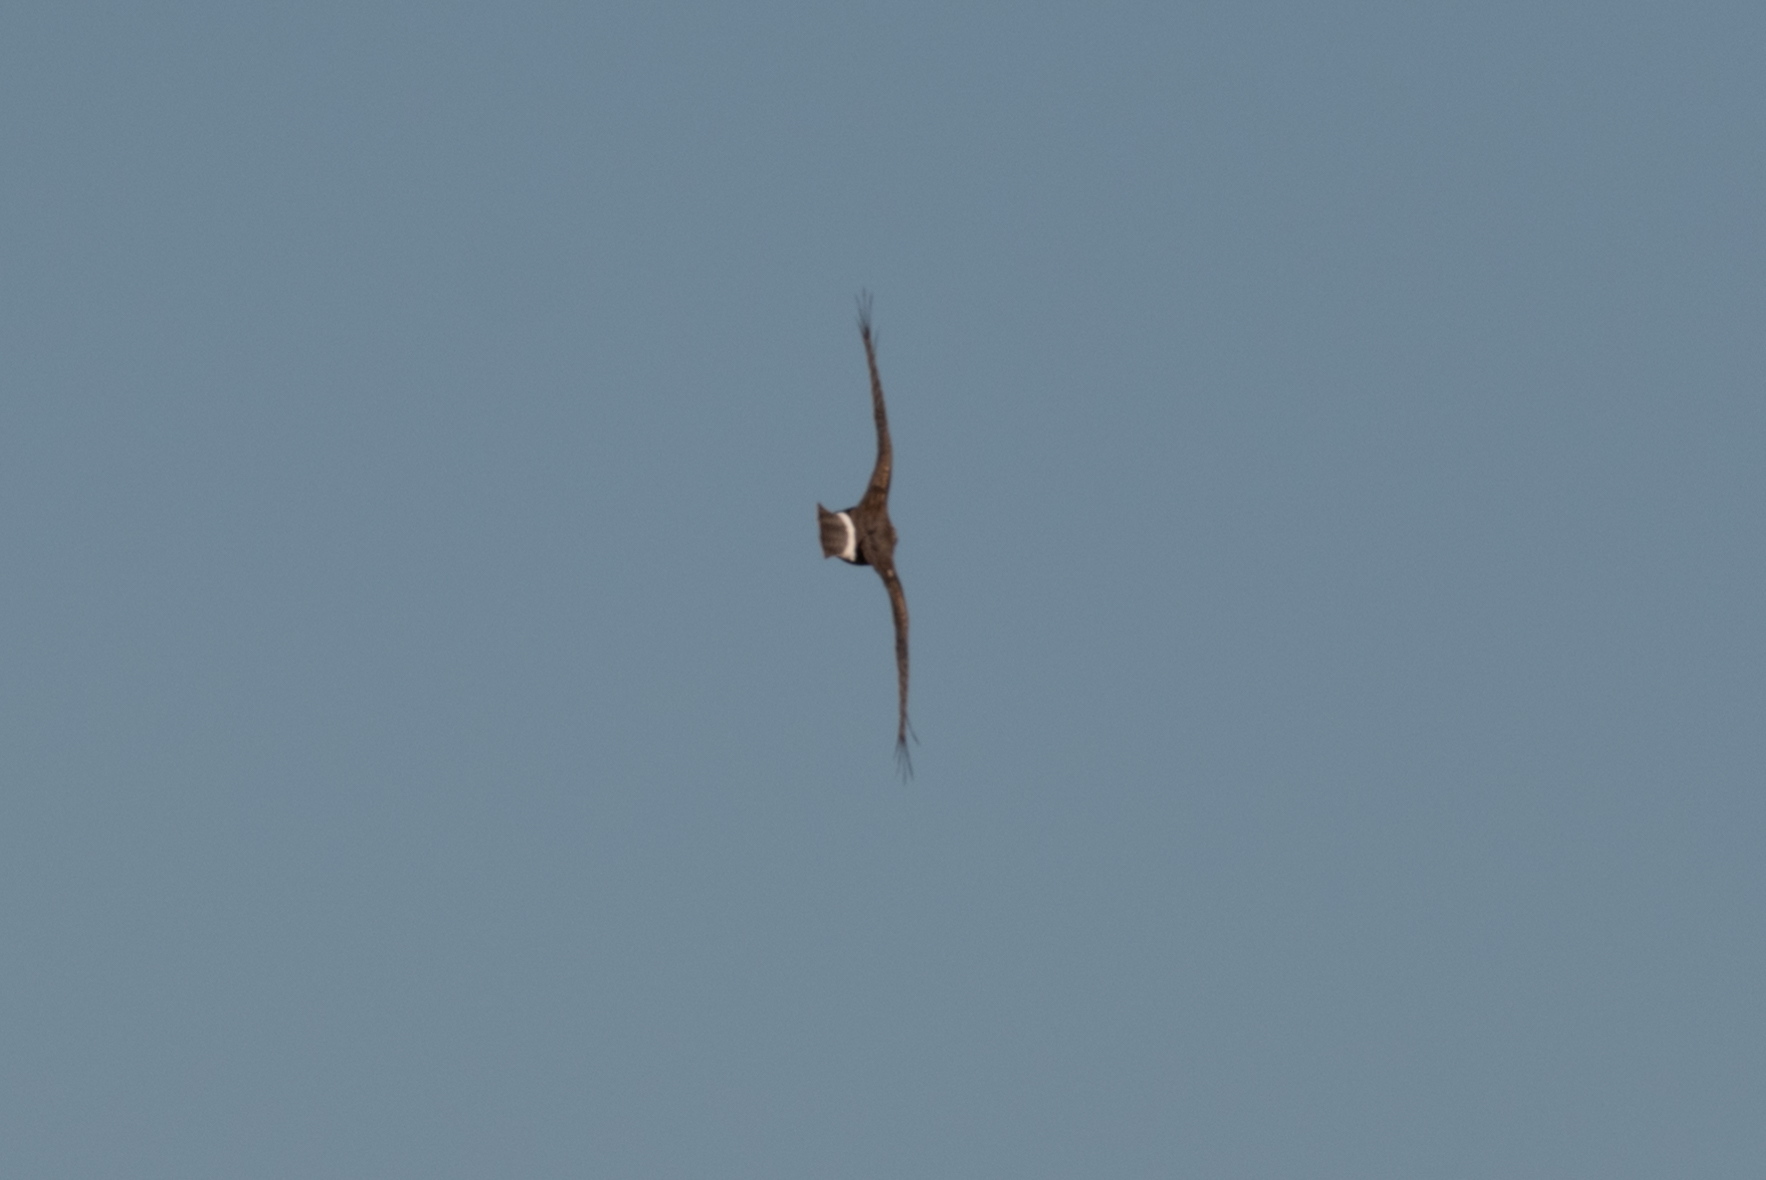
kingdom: Animalia
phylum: Chordata
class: Aves
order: Accipitriformes
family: Accipitridae
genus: Circus
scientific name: Circus cyaneus
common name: Hen harrier
